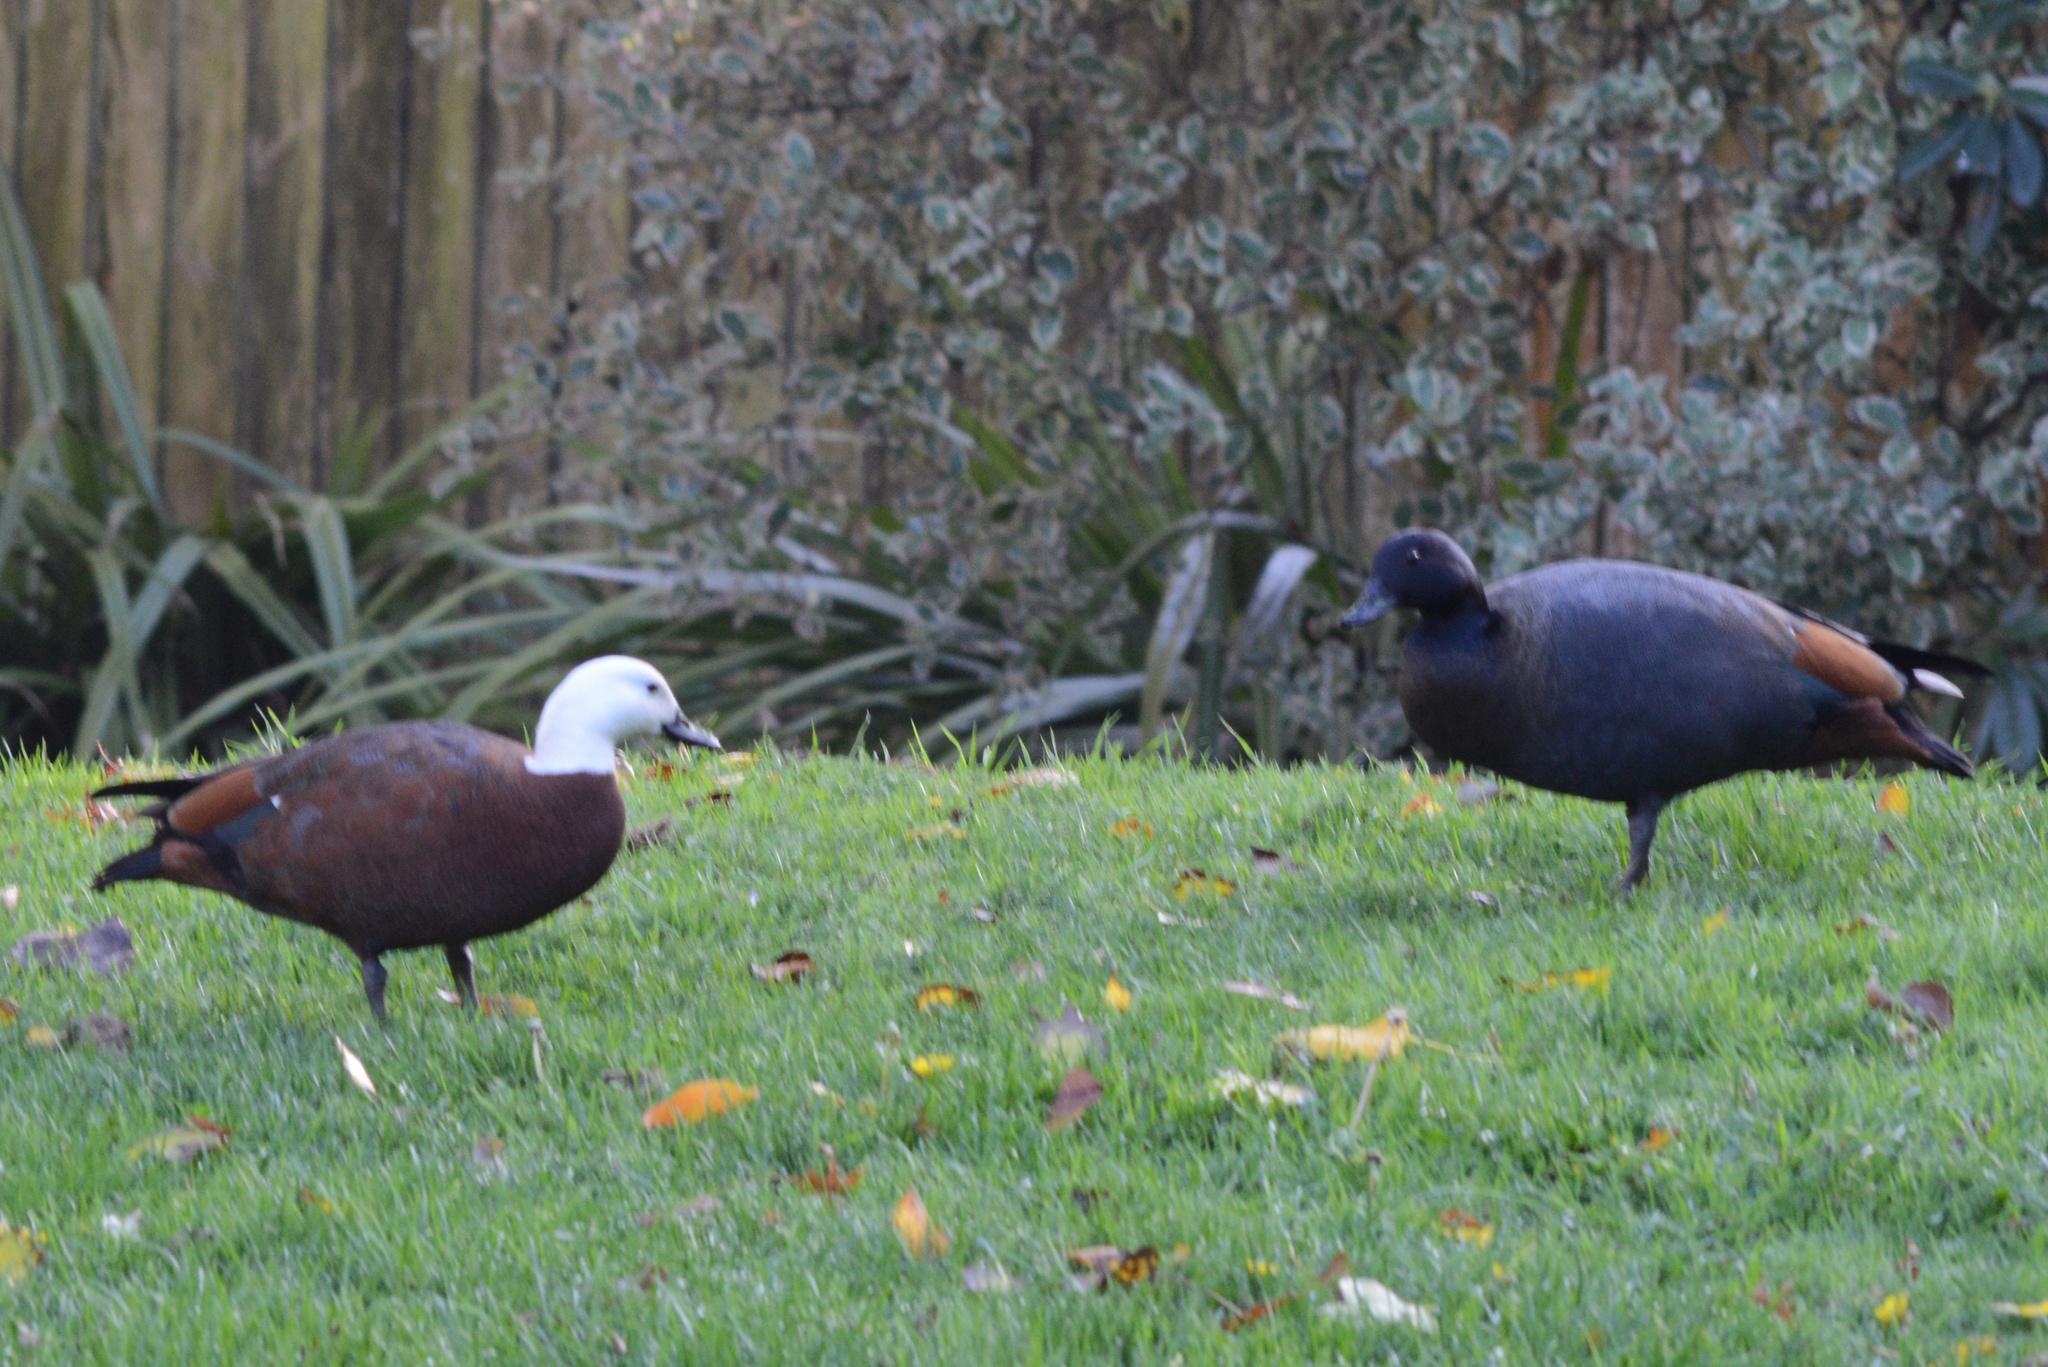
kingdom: Animalia
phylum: Chordata
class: Aves
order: Anseriformes
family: Anatidae
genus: Tadorna
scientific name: Tadorna variegata
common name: Paradise shelduck
